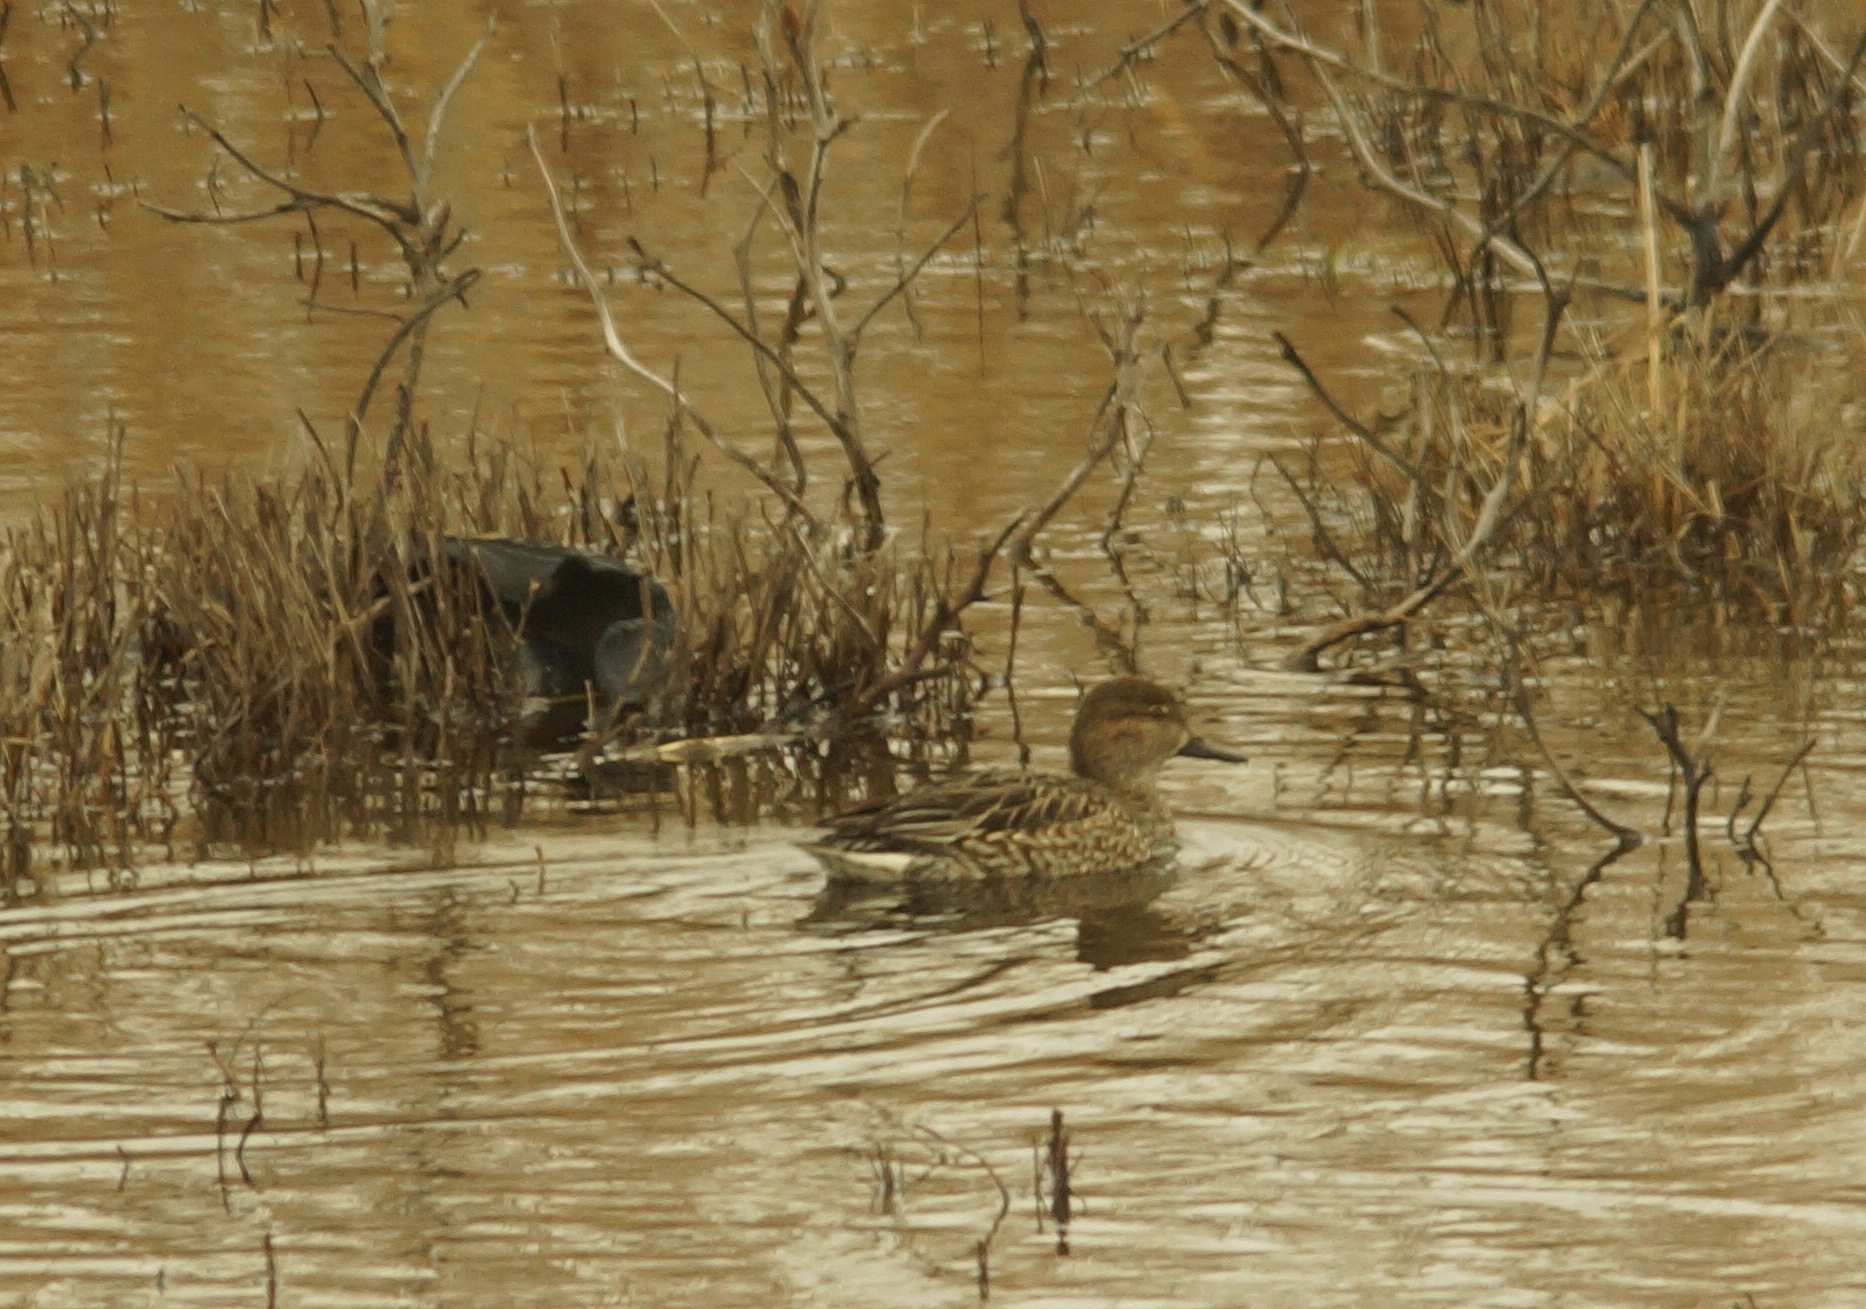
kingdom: Animalia
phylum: Chordata
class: Aves
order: Anseriformes
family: Anatidae
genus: Anas
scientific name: Anas crecca
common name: Eurasian teal
